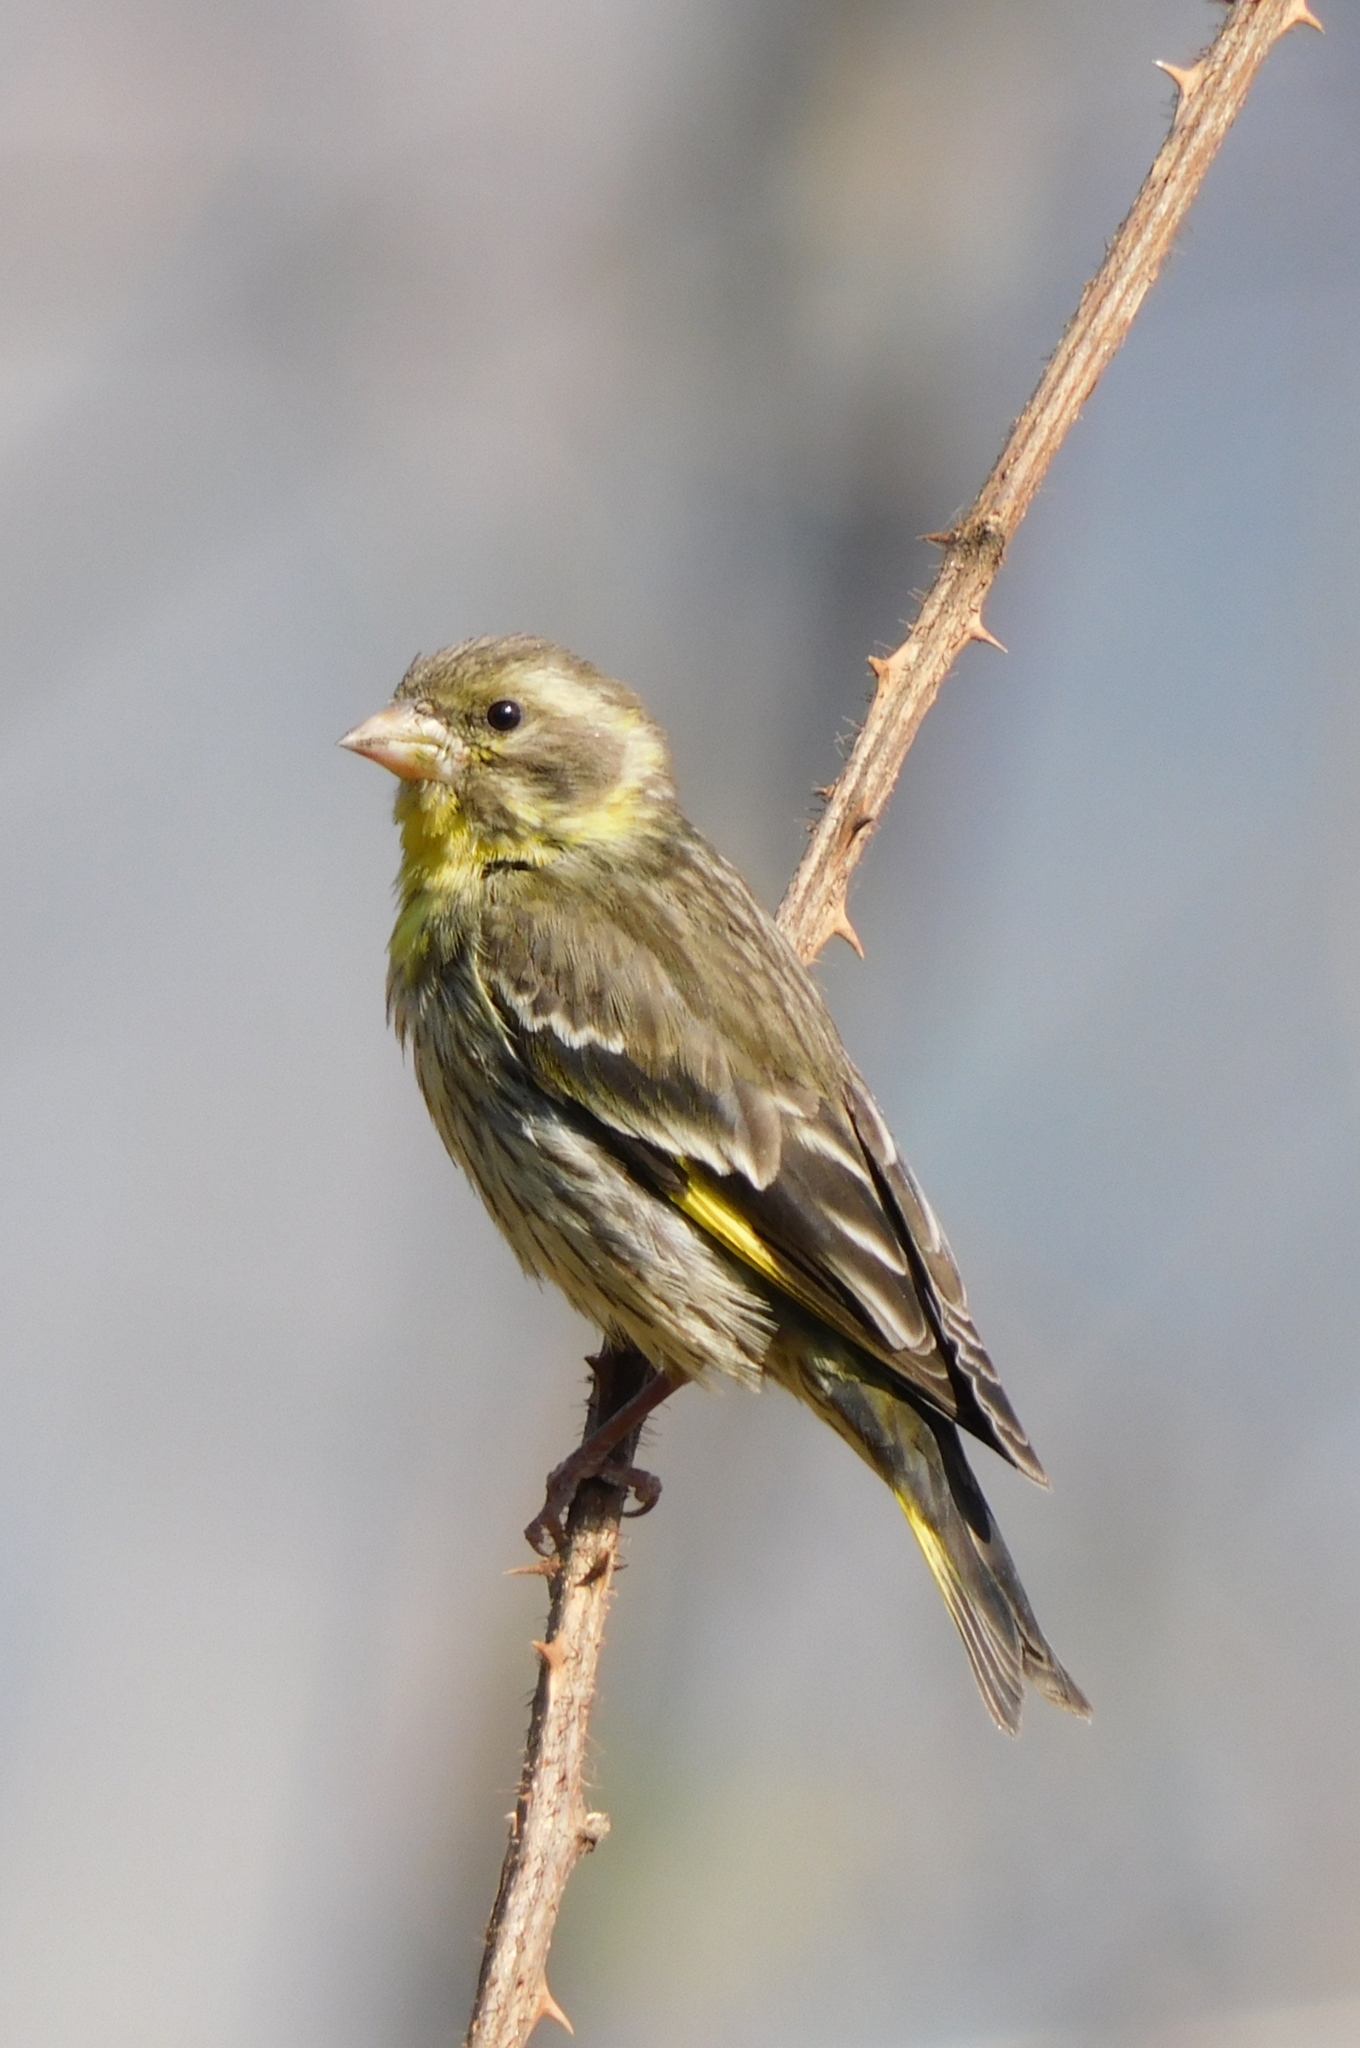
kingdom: Animalia
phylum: Chordata
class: Aves
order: Passeriformes
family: Fringillidae
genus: Chloris
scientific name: Chloris spinoides
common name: Yellow-breasted greenfinch
